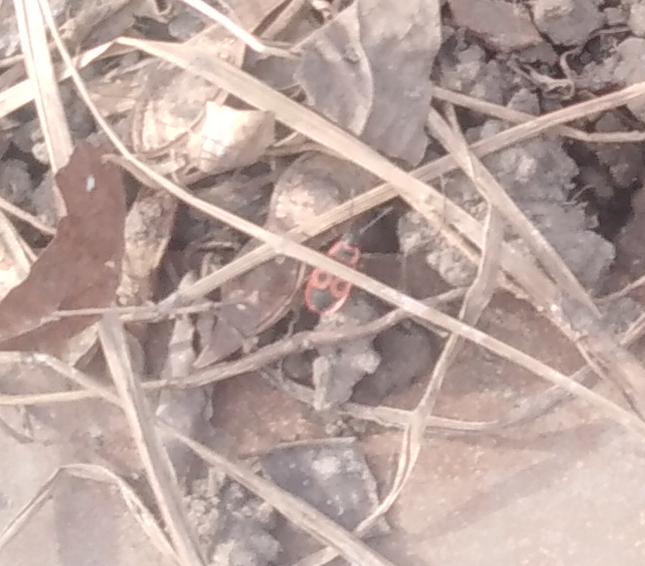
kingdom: Animalia
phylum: Arthropoda
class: Insecta
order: Hemiptera
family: Pyrrhocoridae
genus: Pyrrhocoris
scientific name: Pyrrhocoris apterus
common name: Firebug
